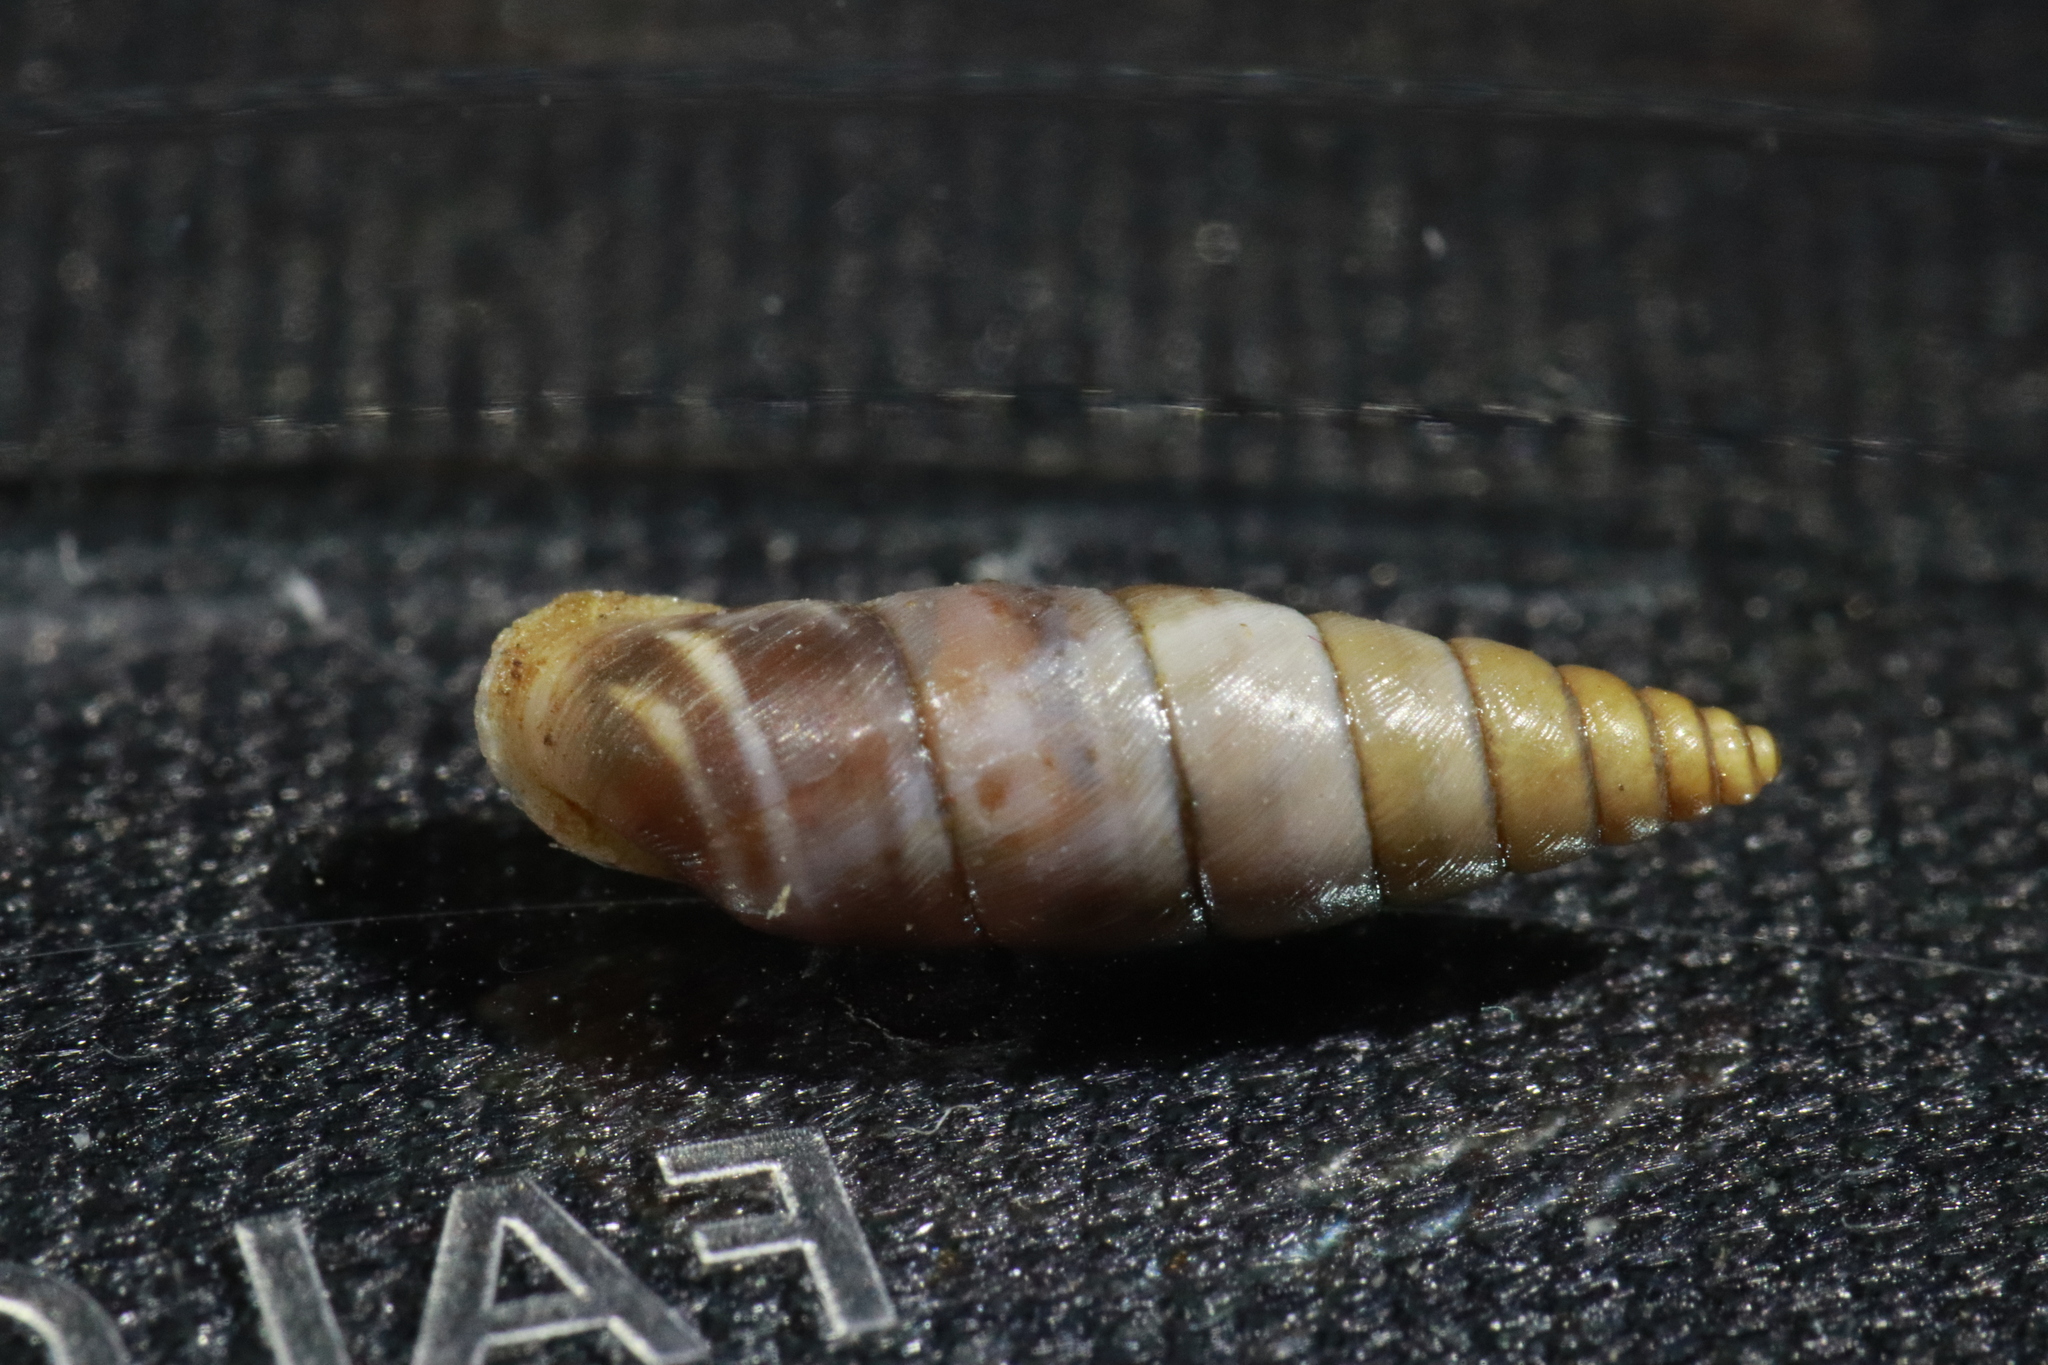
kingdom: Animalia
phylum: Mollusca
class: Gastropoda
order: Stylommatophora
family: Chondrinidae
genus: Solatopupa
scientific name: Solatopupa similis
